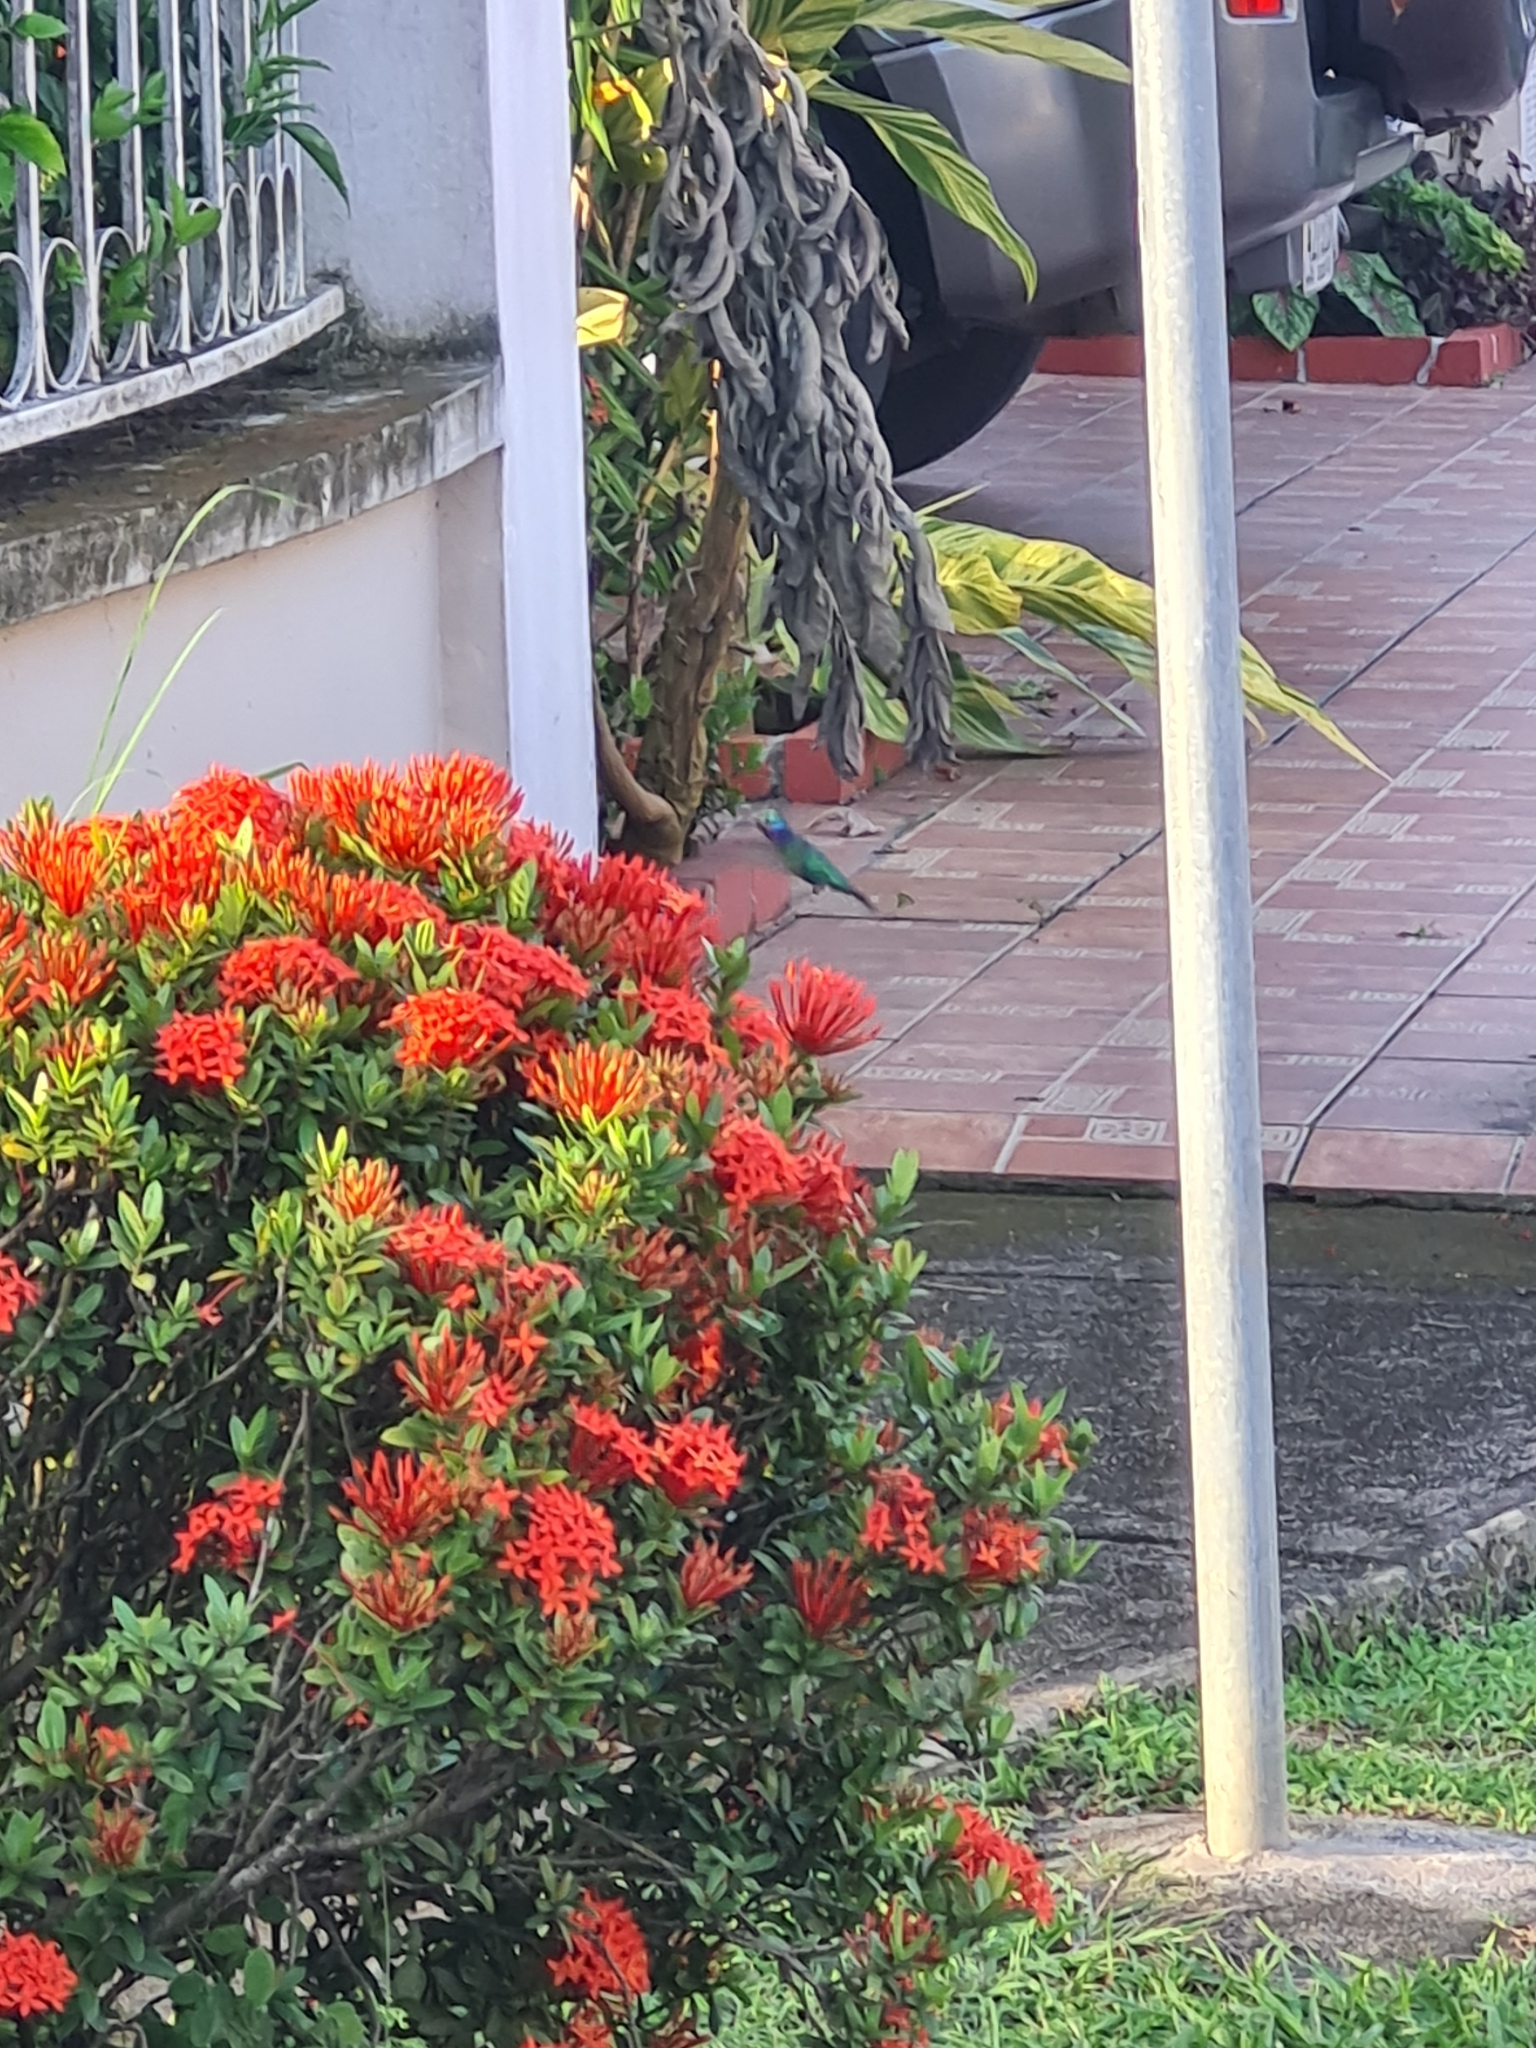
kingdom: Animalia
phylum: Chordata
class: Aves
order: Apodiformes
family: Trochilidae
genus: Chrysuronia
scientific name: Chrysuronia coeruleogularis
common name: Sapphire-throated hummingbird
